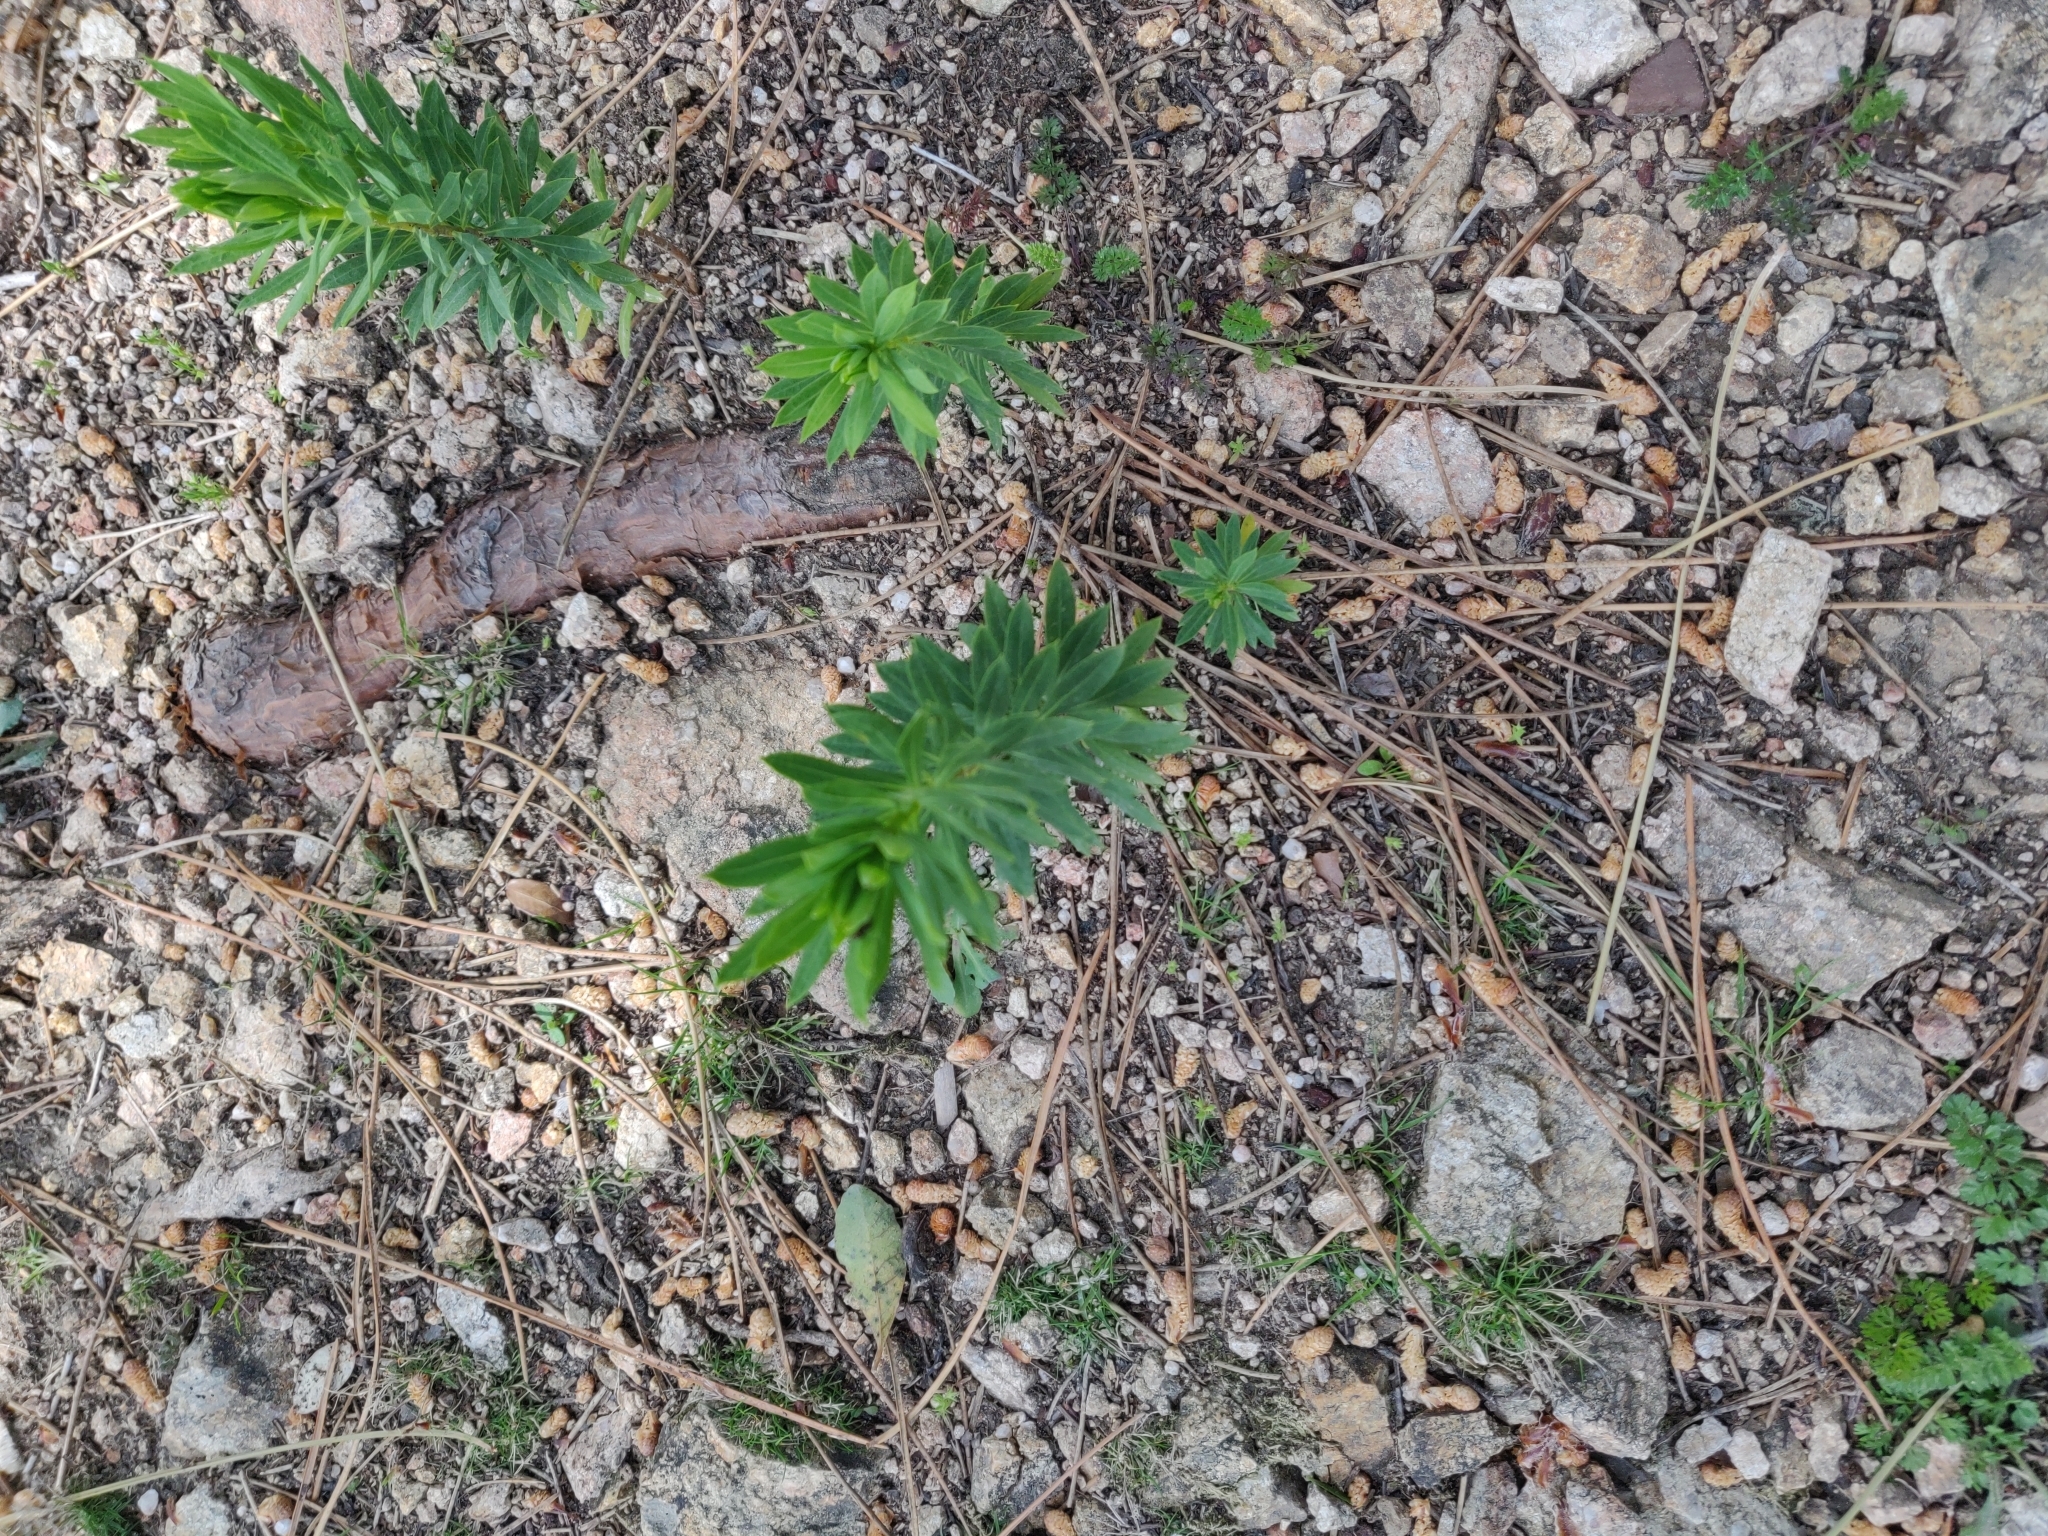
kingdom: Plantae
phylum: Tracheophyta
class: Magnoliopsida
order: Malvales
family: Thymelaeaceae
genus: Daphne
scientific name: Daphne gnidium
